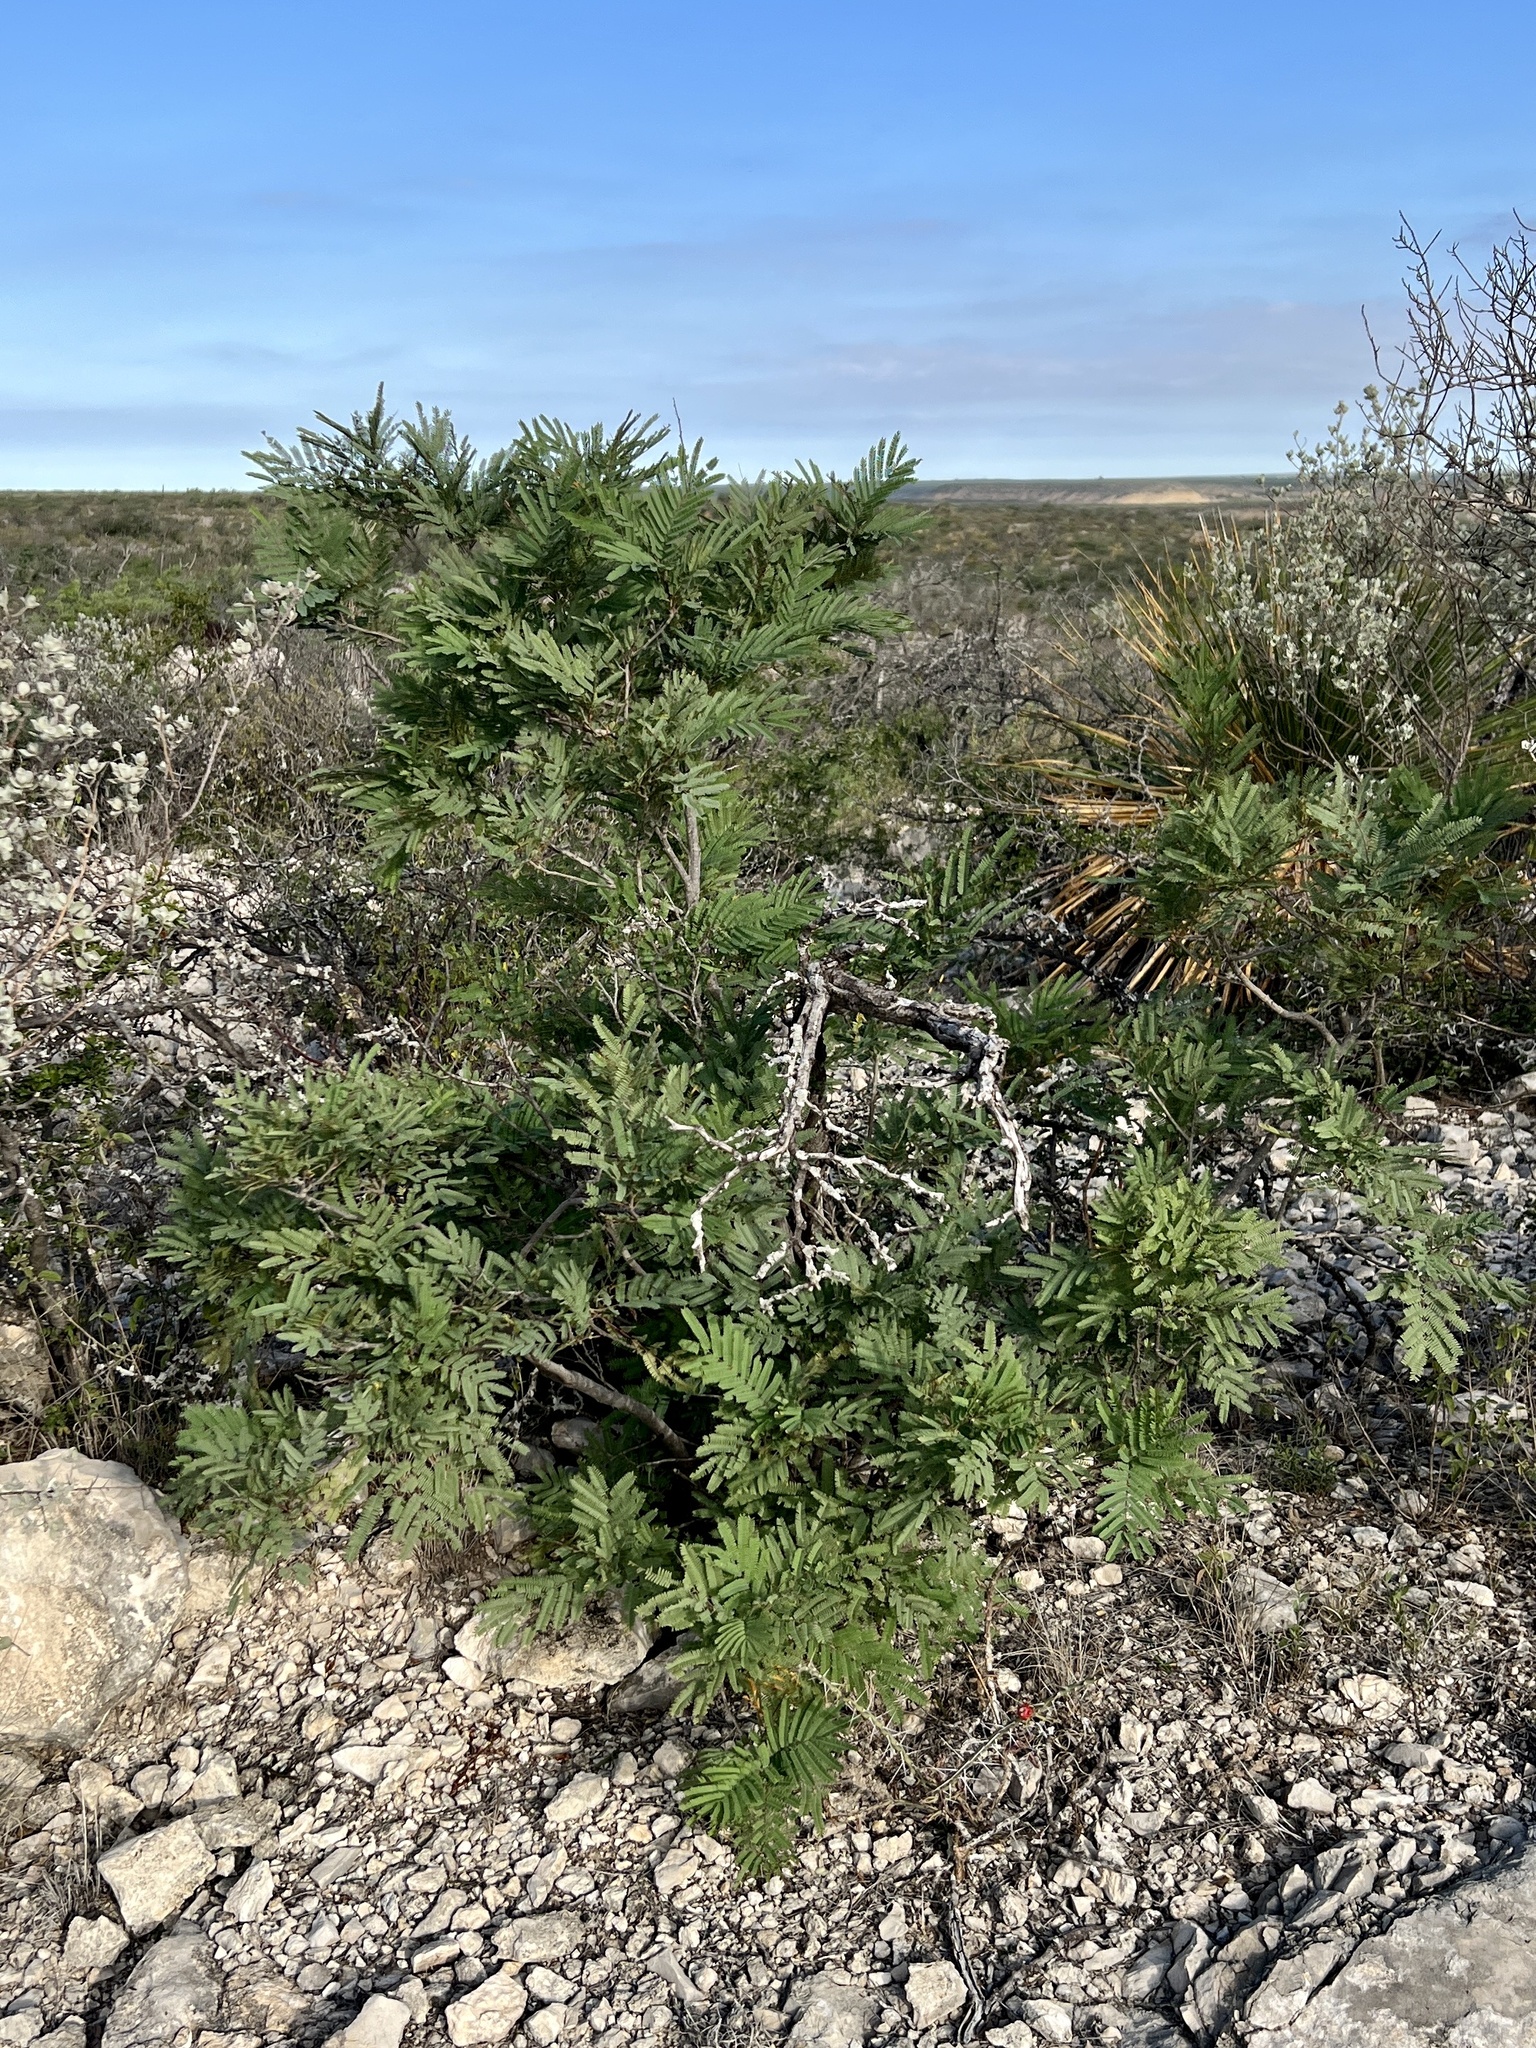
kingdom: Plantae
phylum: Tracheophyta
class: Magnoliopsida
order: Fabales
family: Fabaceae
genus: Senegalia
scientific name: Senegalia berlandieri
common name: Berlandier acacia
